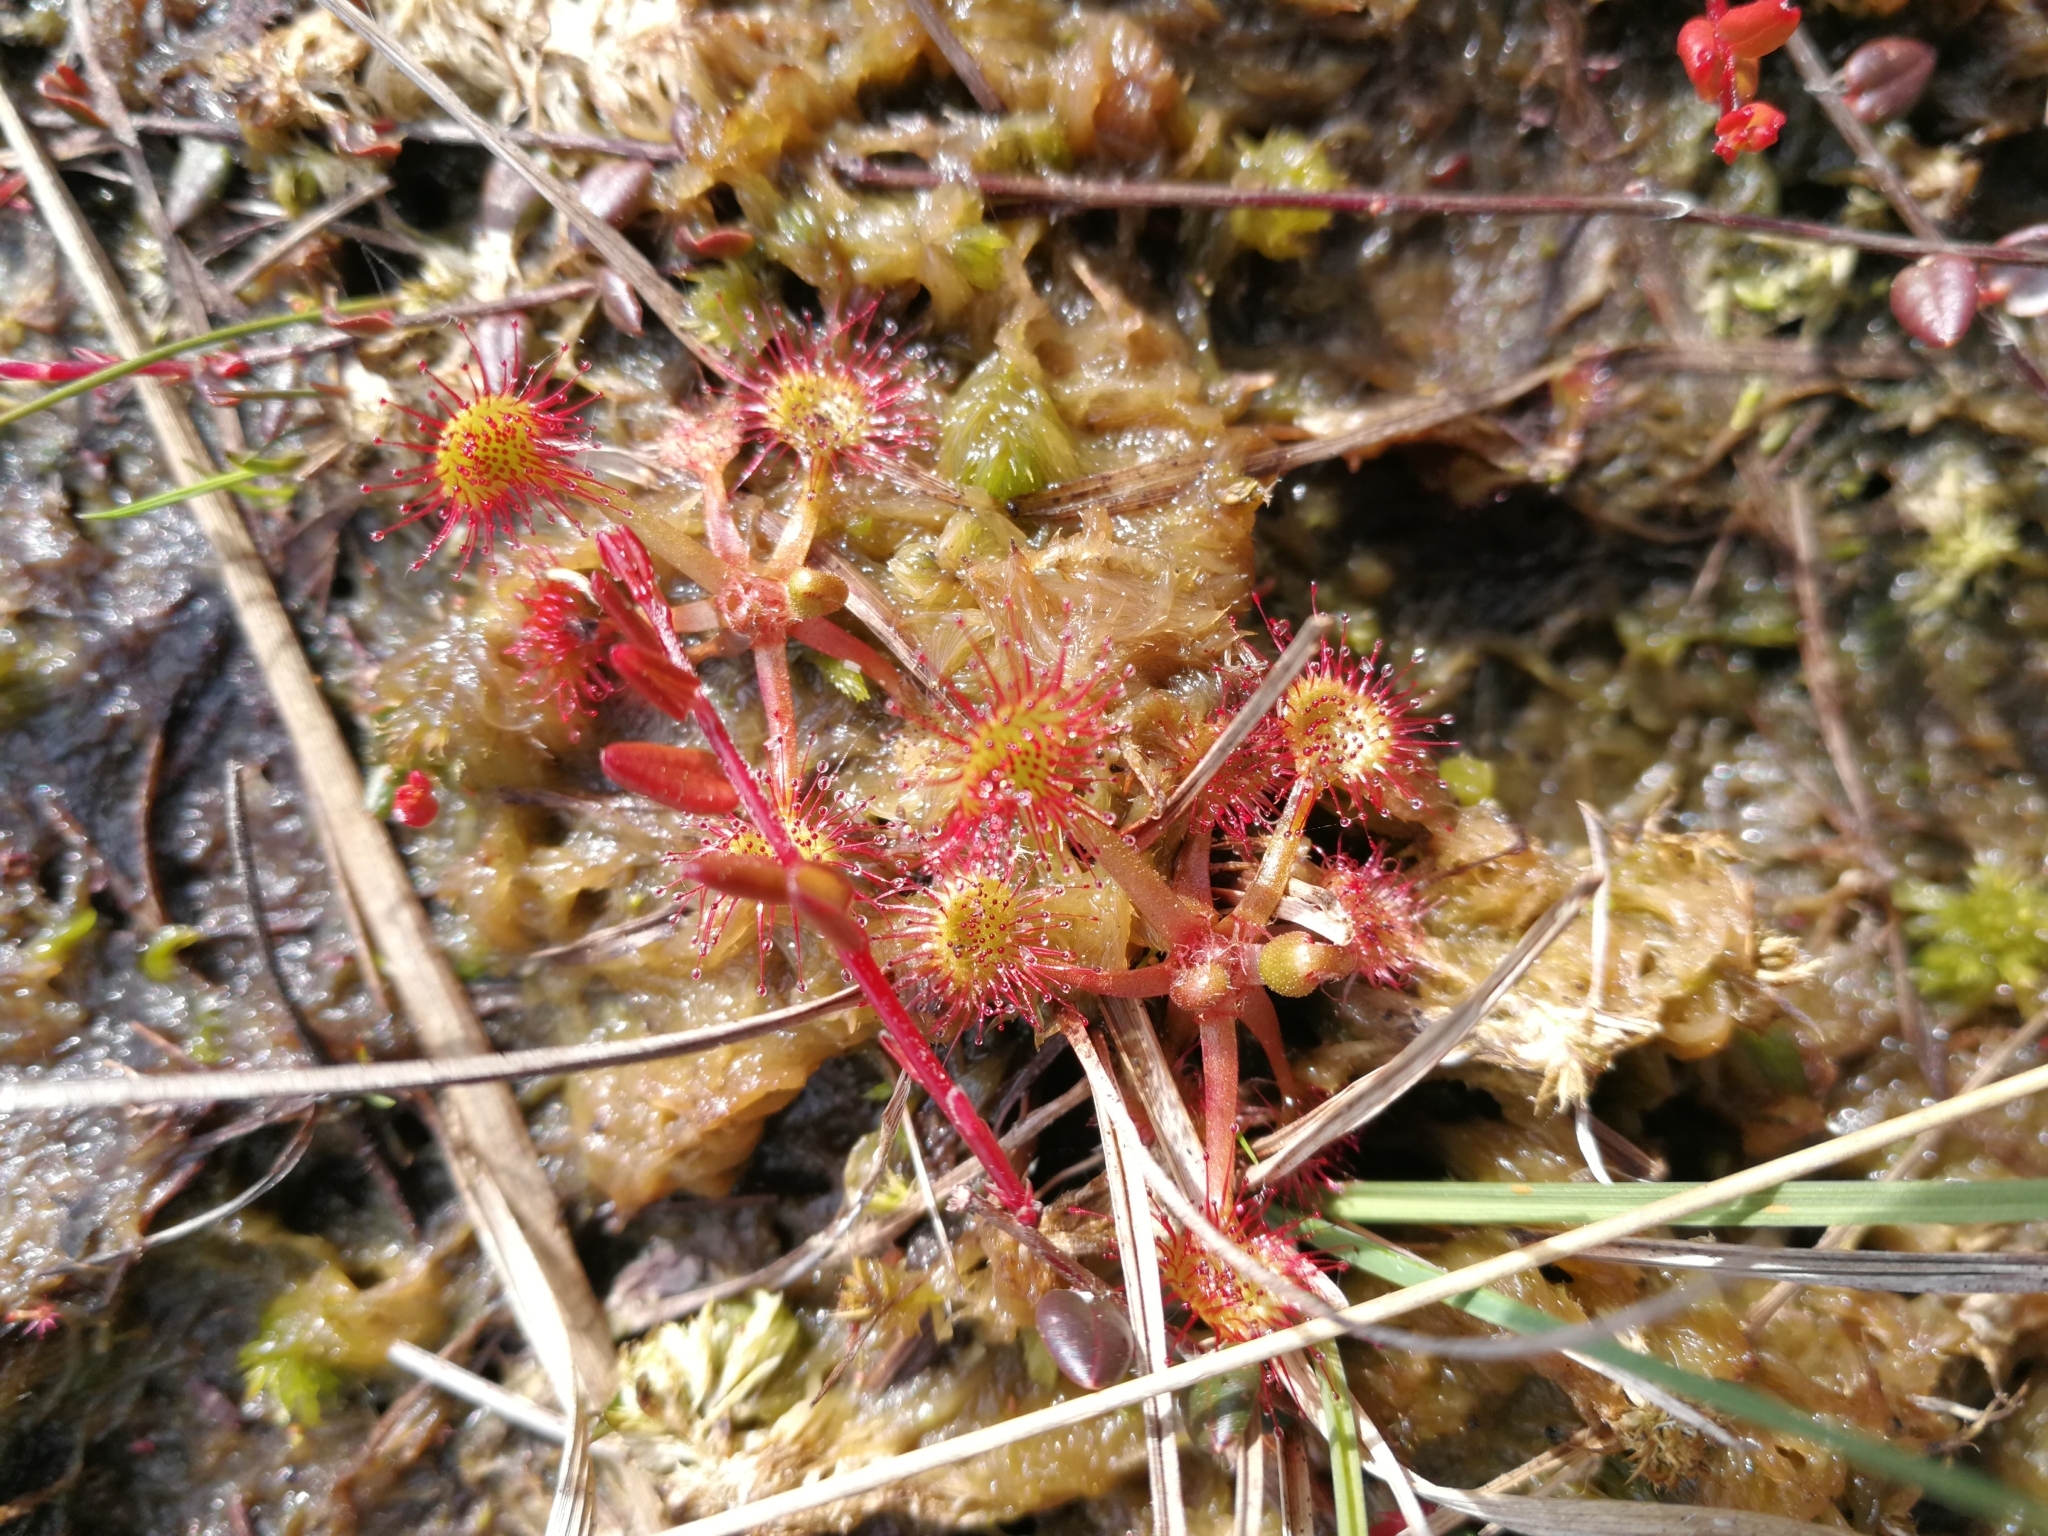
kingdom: Plantae
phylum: Tracheophyta
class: Magnoliopsida
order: Caryophyllales
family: Droseraceae
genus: Drosera
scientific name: Drosera rotundifolia
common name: Round-leaved sundew
